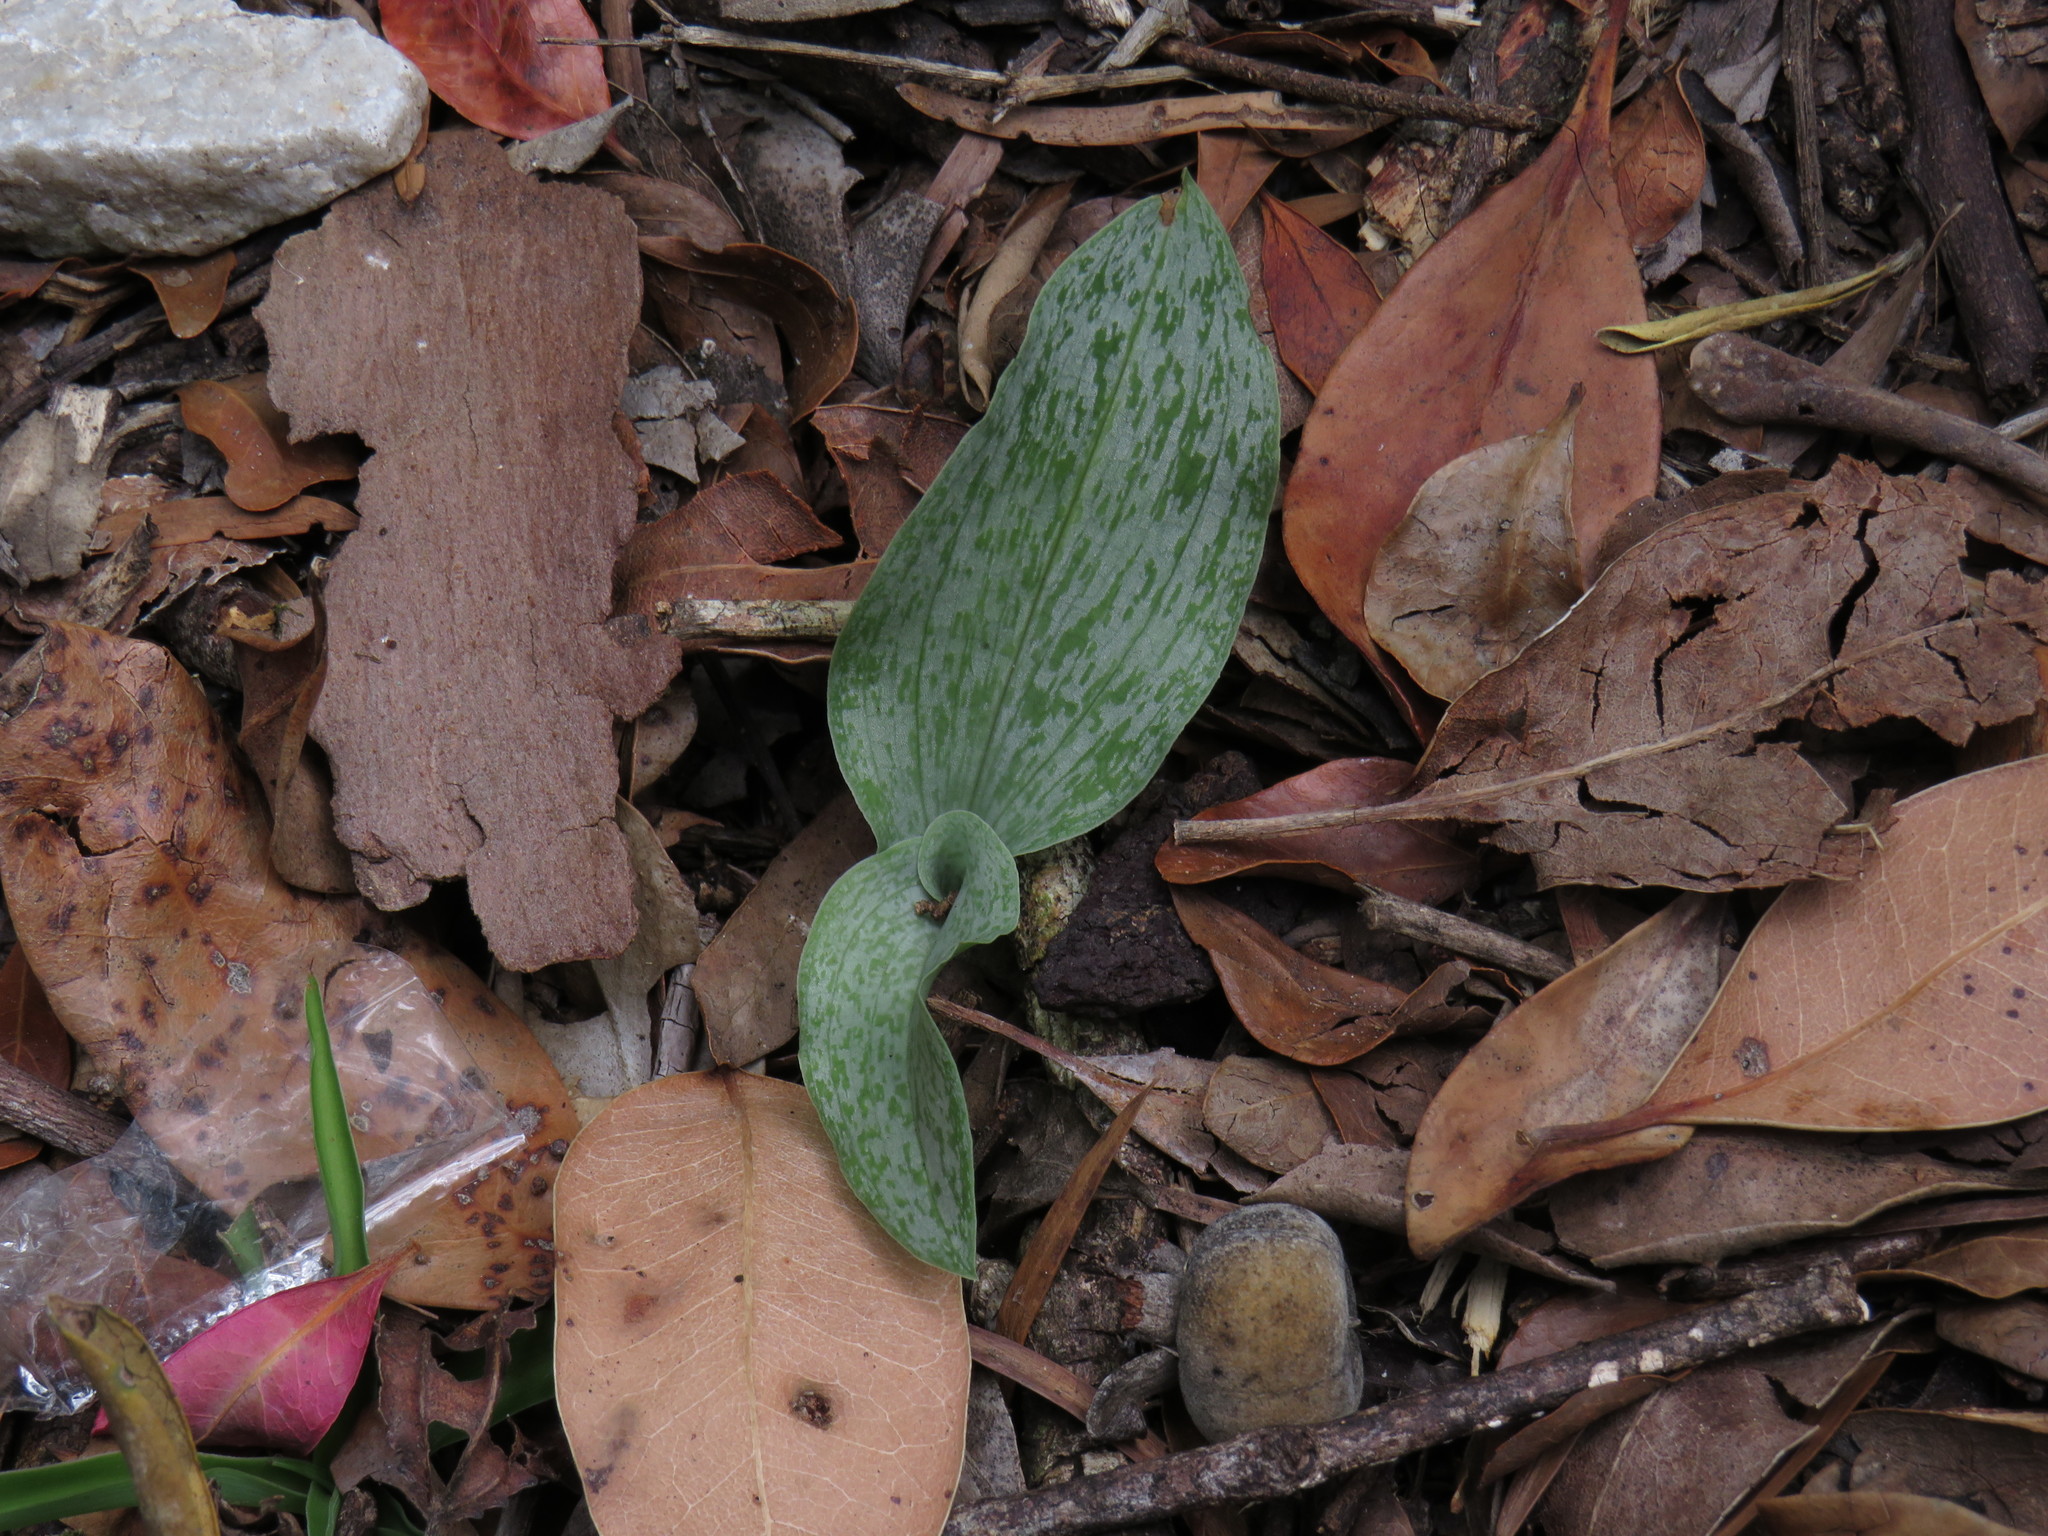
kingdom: Plantae
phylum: Tracheophyta
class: Liliopsida
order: Asparagales
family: Orchidaceae
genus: Habenaria
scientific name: Habenaria arenaria
